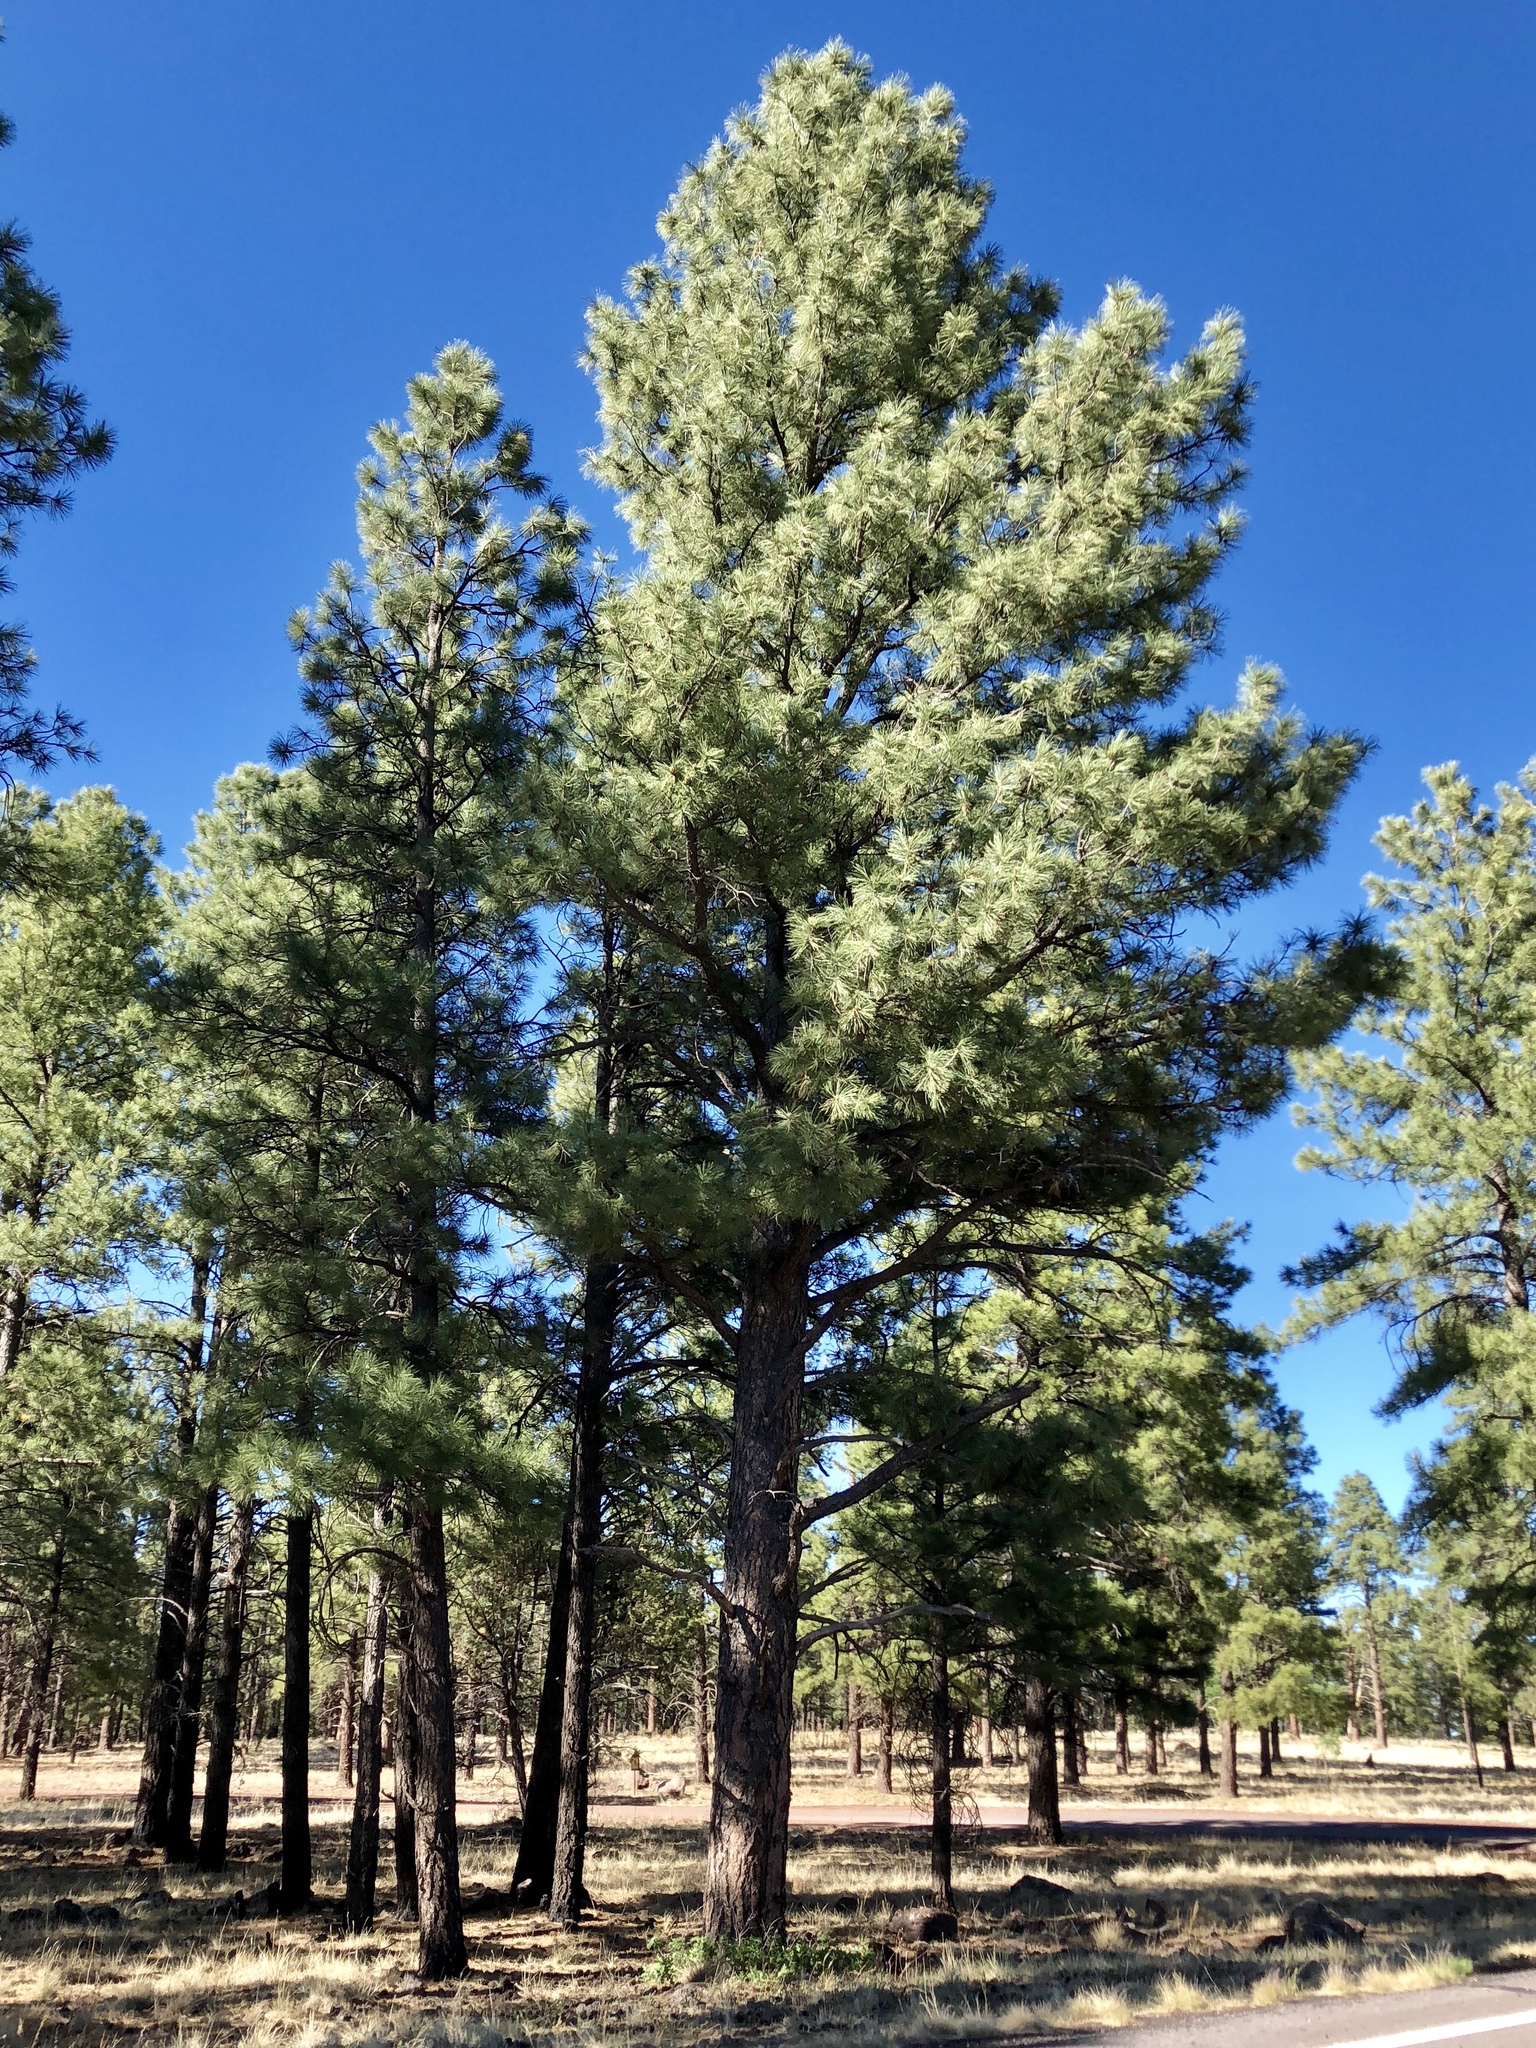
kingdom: Plantae
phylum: Tracheophyta
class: Pinopsida
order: Pinales
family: Pinaceae
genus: Pinus
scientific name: Pinus ponderosa
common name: Western yellow-pine
